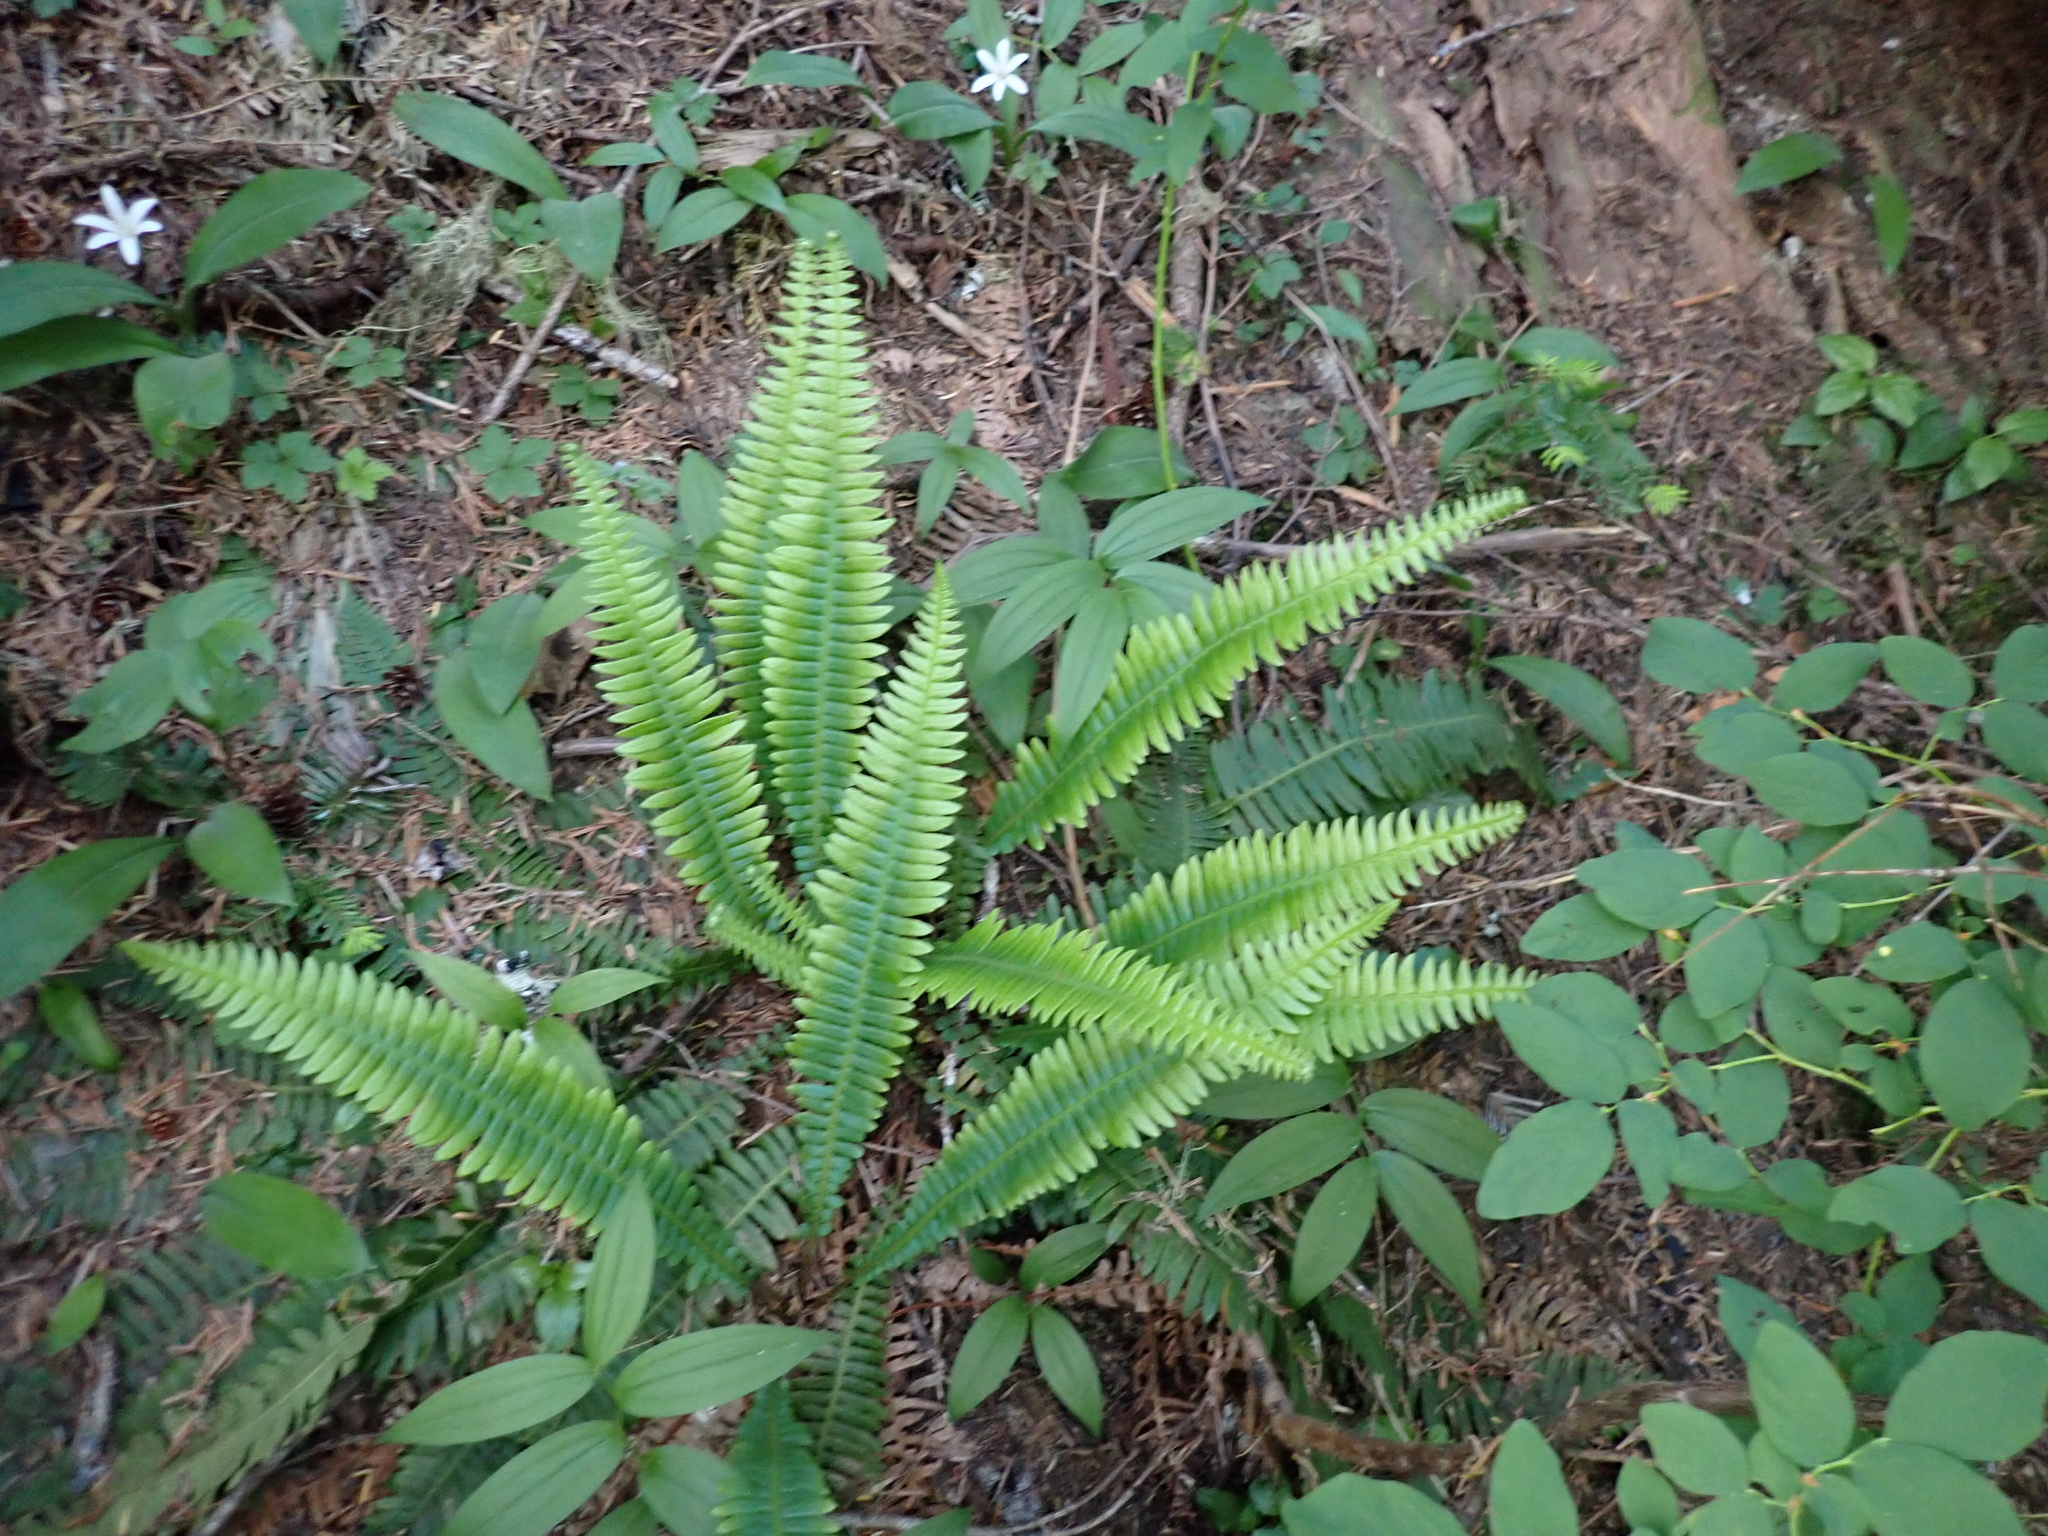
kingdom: Plantae
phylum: Tracheophyta
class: Polypodiopsida
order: Polypodiales
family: Blechnaceae
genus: Struthiopteris
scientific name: Struthiopteris spicant
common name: Deer fern
